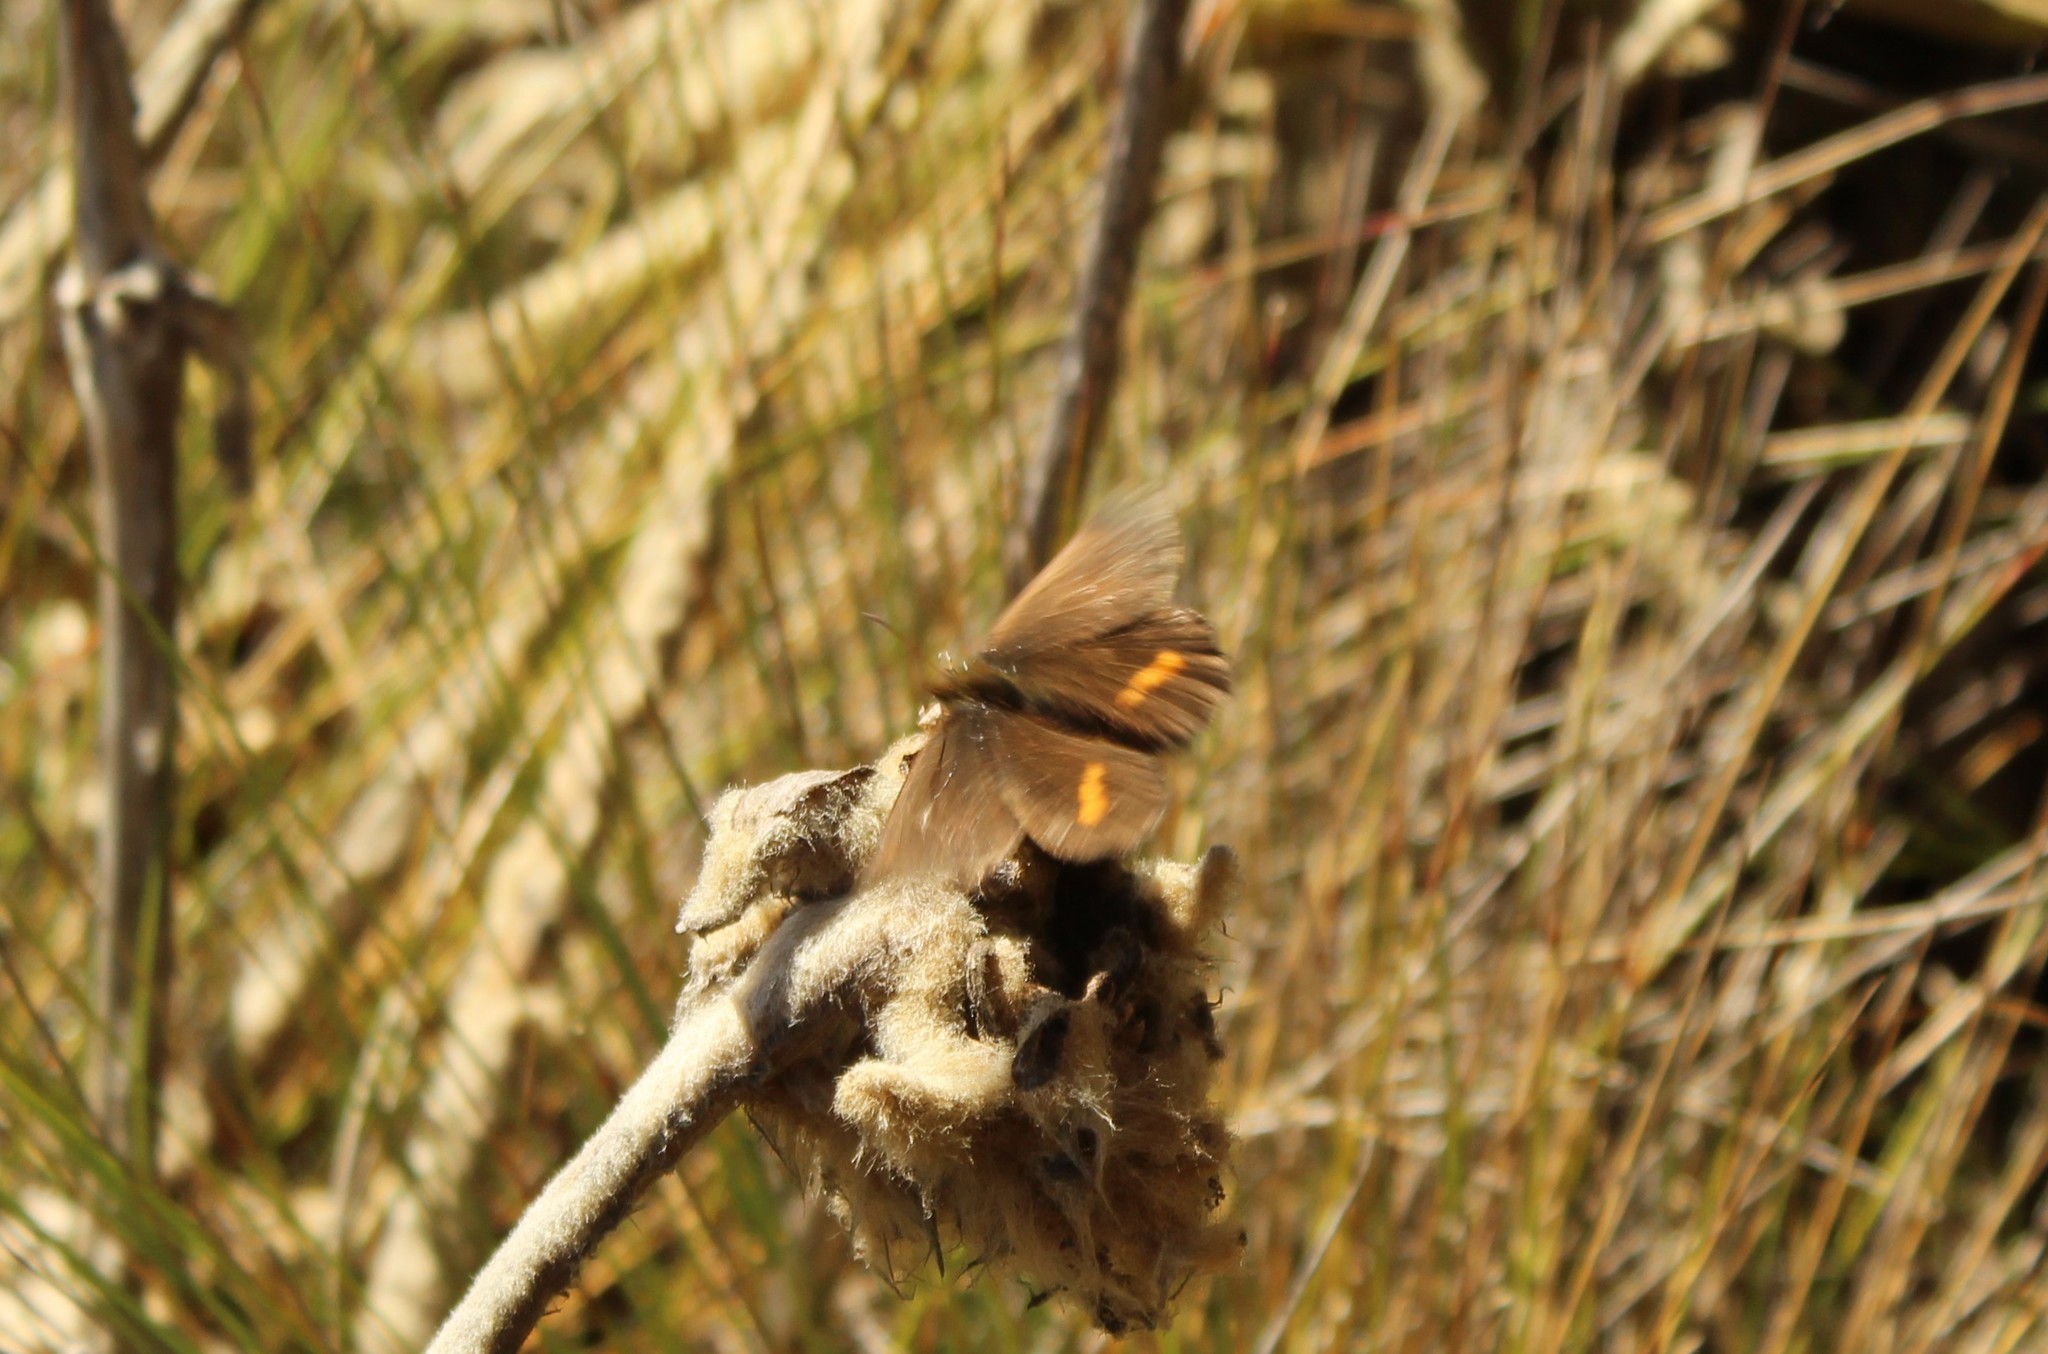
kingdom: Animalia
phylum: Arthropoda
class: Insecta
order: Lepidoptera
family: Nymphalidae
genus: Altopedaliodes
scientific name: Altopedaliodes nebris
